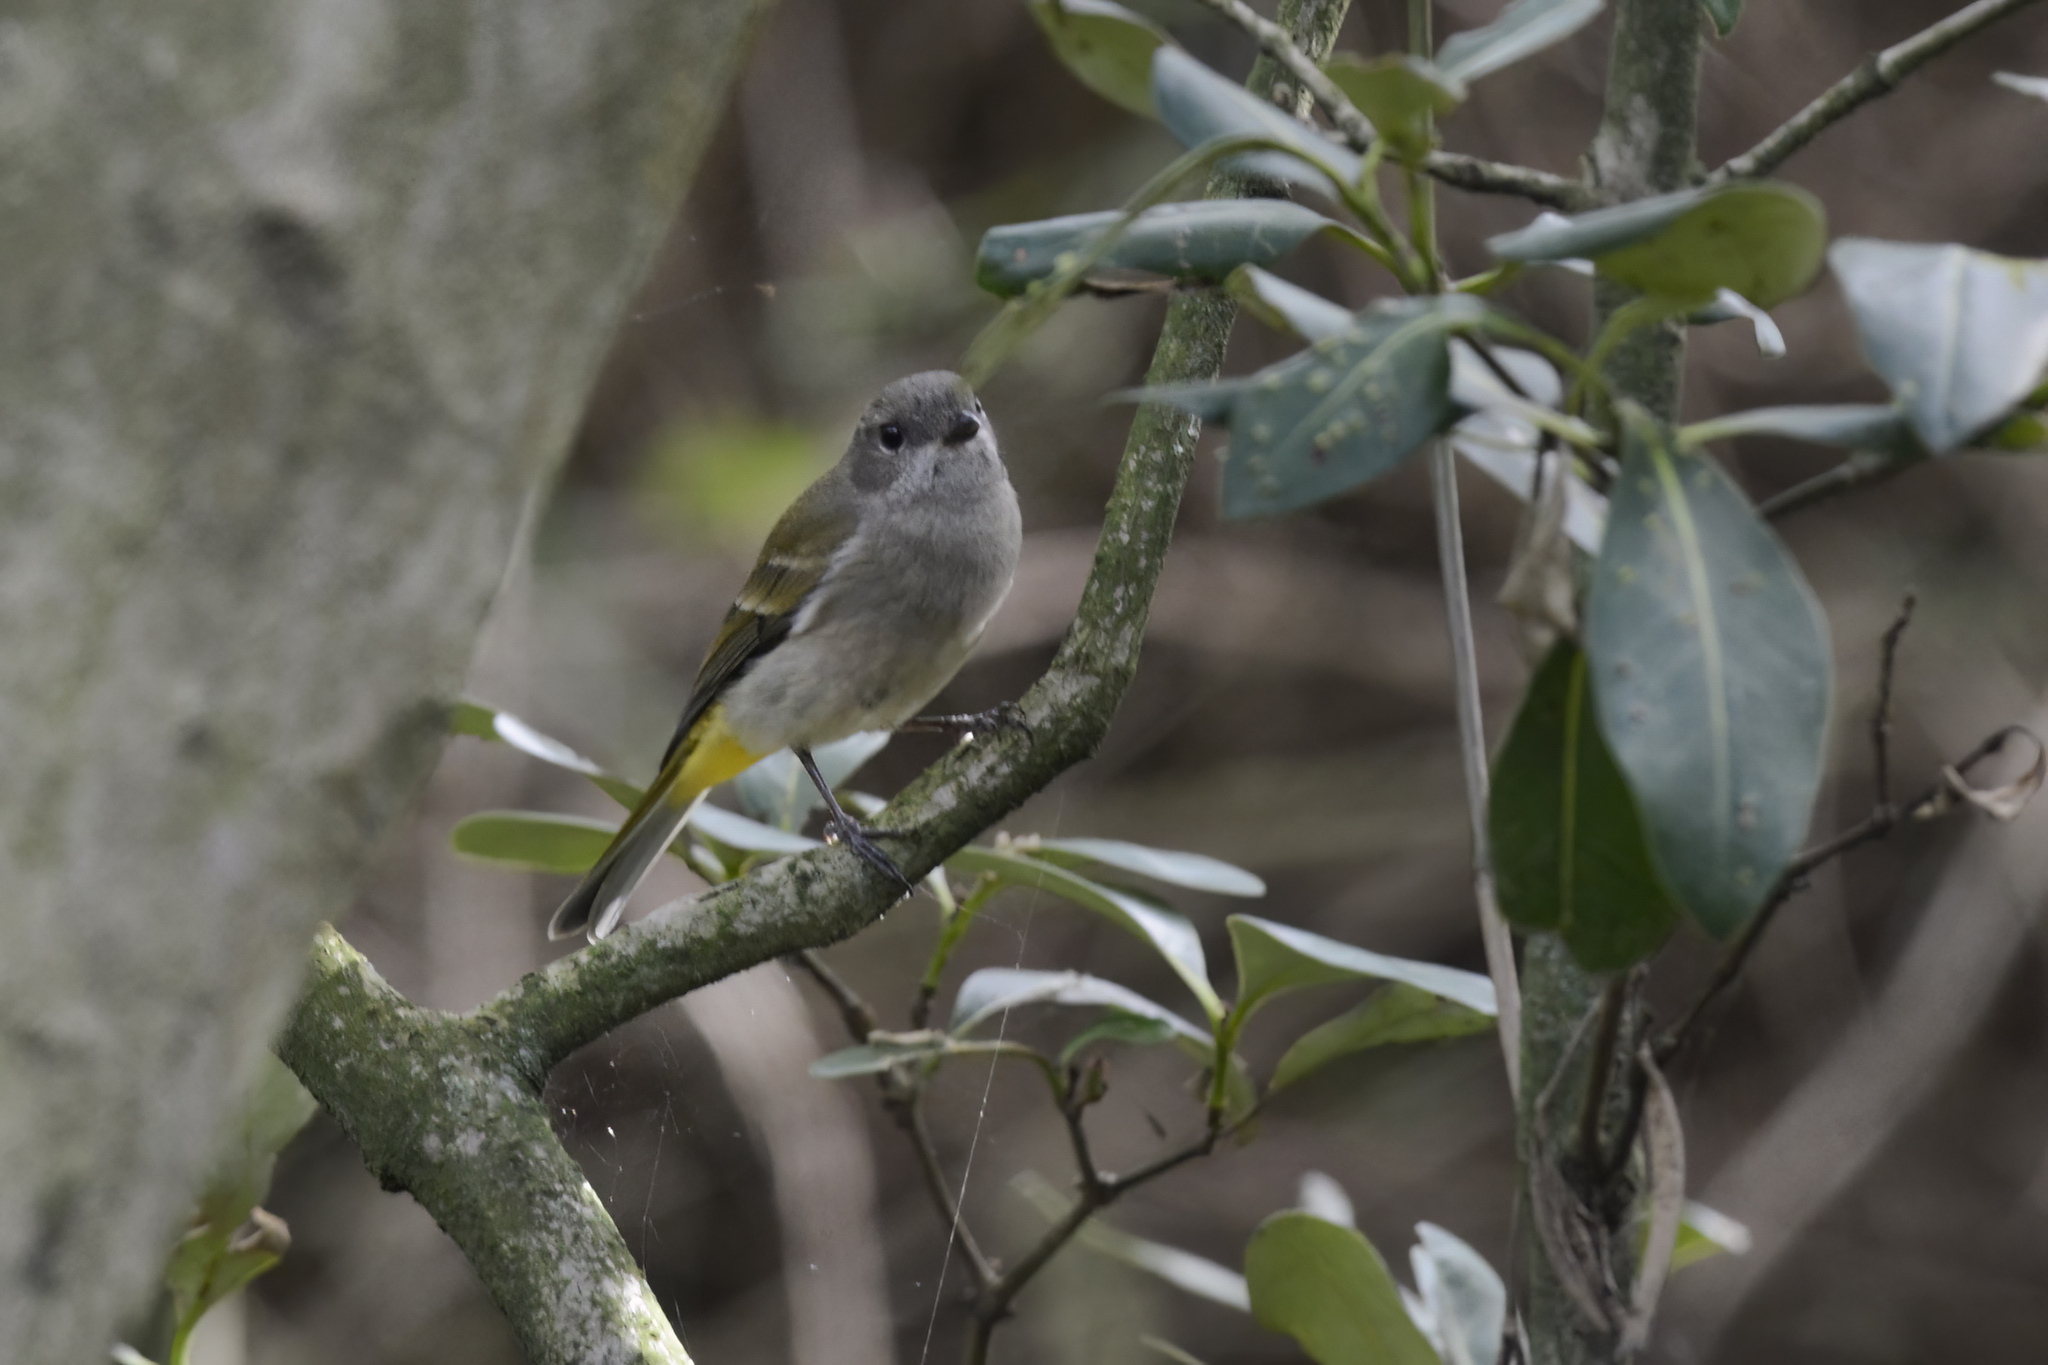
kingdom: Animalia
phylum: Chordata
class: Aves
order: Passeriformes
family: Pachycephalidae
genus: Pachycephala
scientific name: Pachycephala pectoralis
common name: Australian golden whistler
